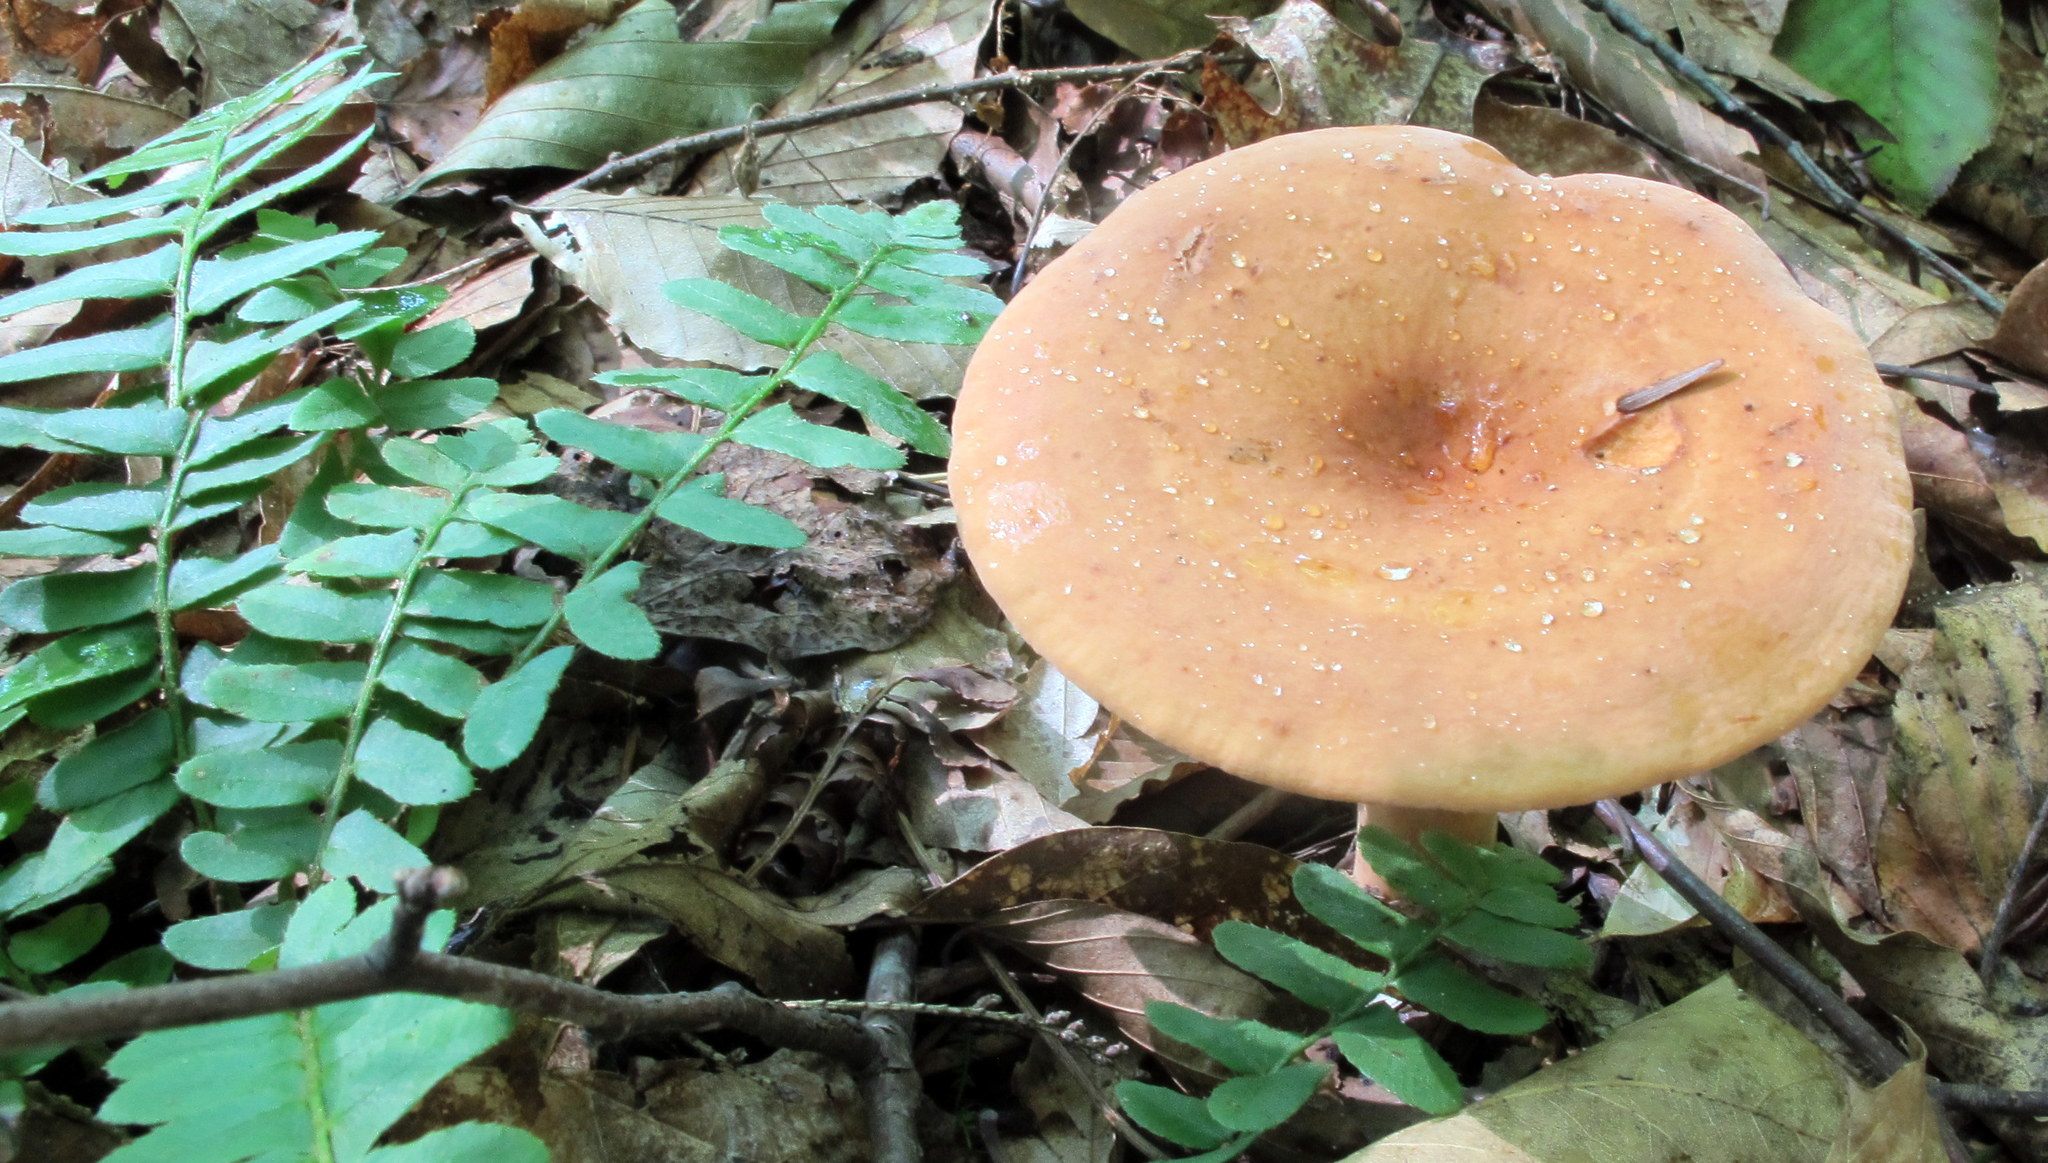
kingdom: Fungi
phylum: Basidiomycota
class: Agaricomycetes
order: Russulales
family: Russulaceae
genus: Lactifluus
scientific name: Lactifluus volemus
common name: Fishy milkcap
